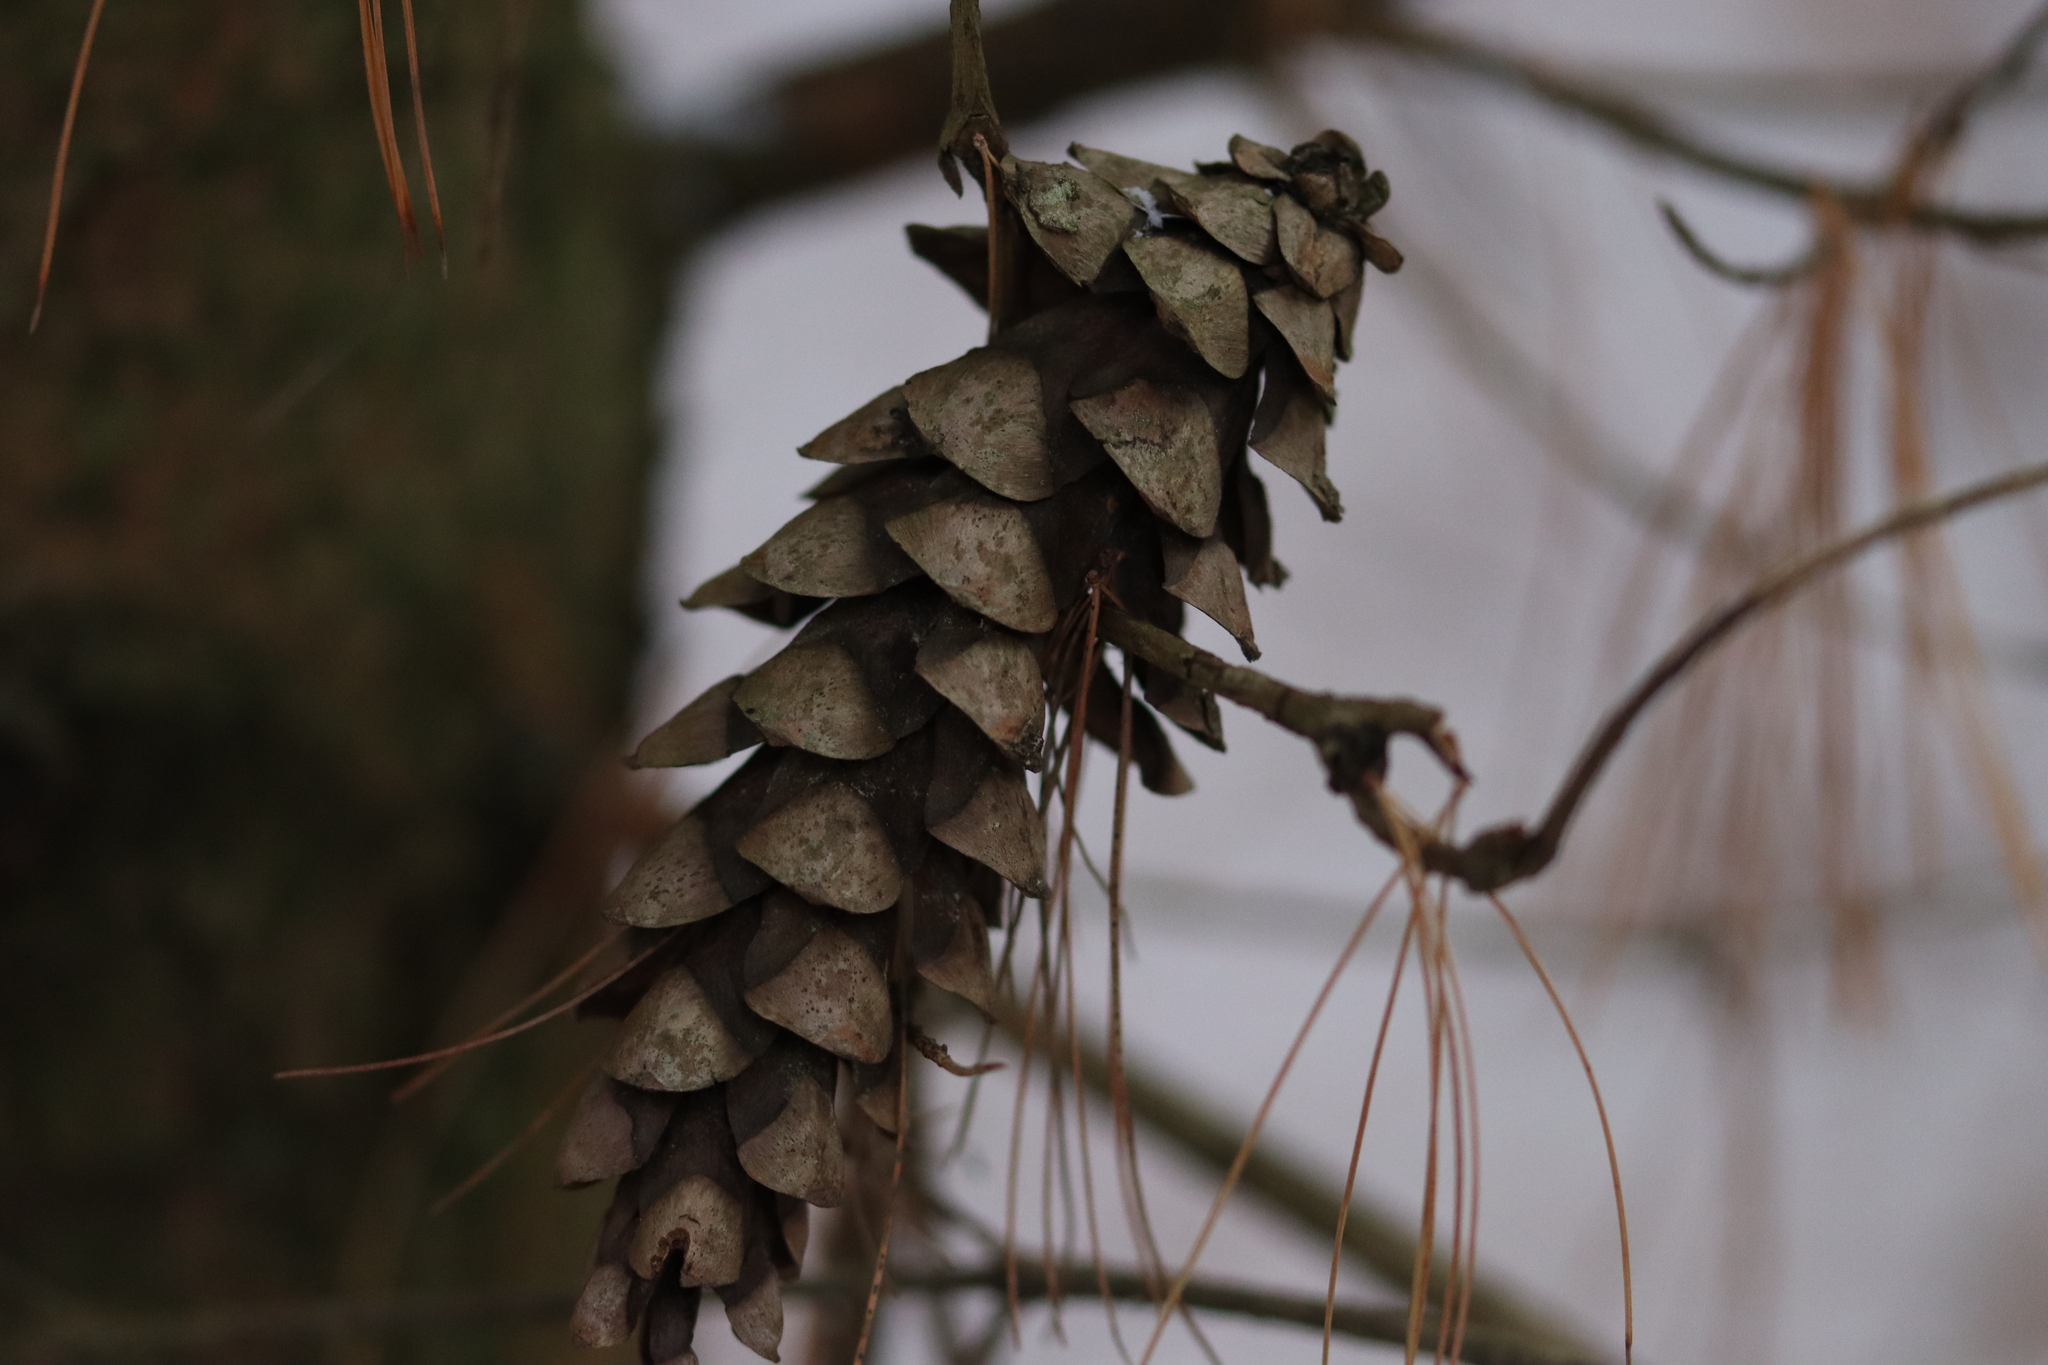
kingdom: Plantae
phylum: Tracheophyta
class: Pinopsida
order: Pinales
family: Pinaceae
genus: Pinus
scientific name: Pinus strobus
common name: Weymouth pine
